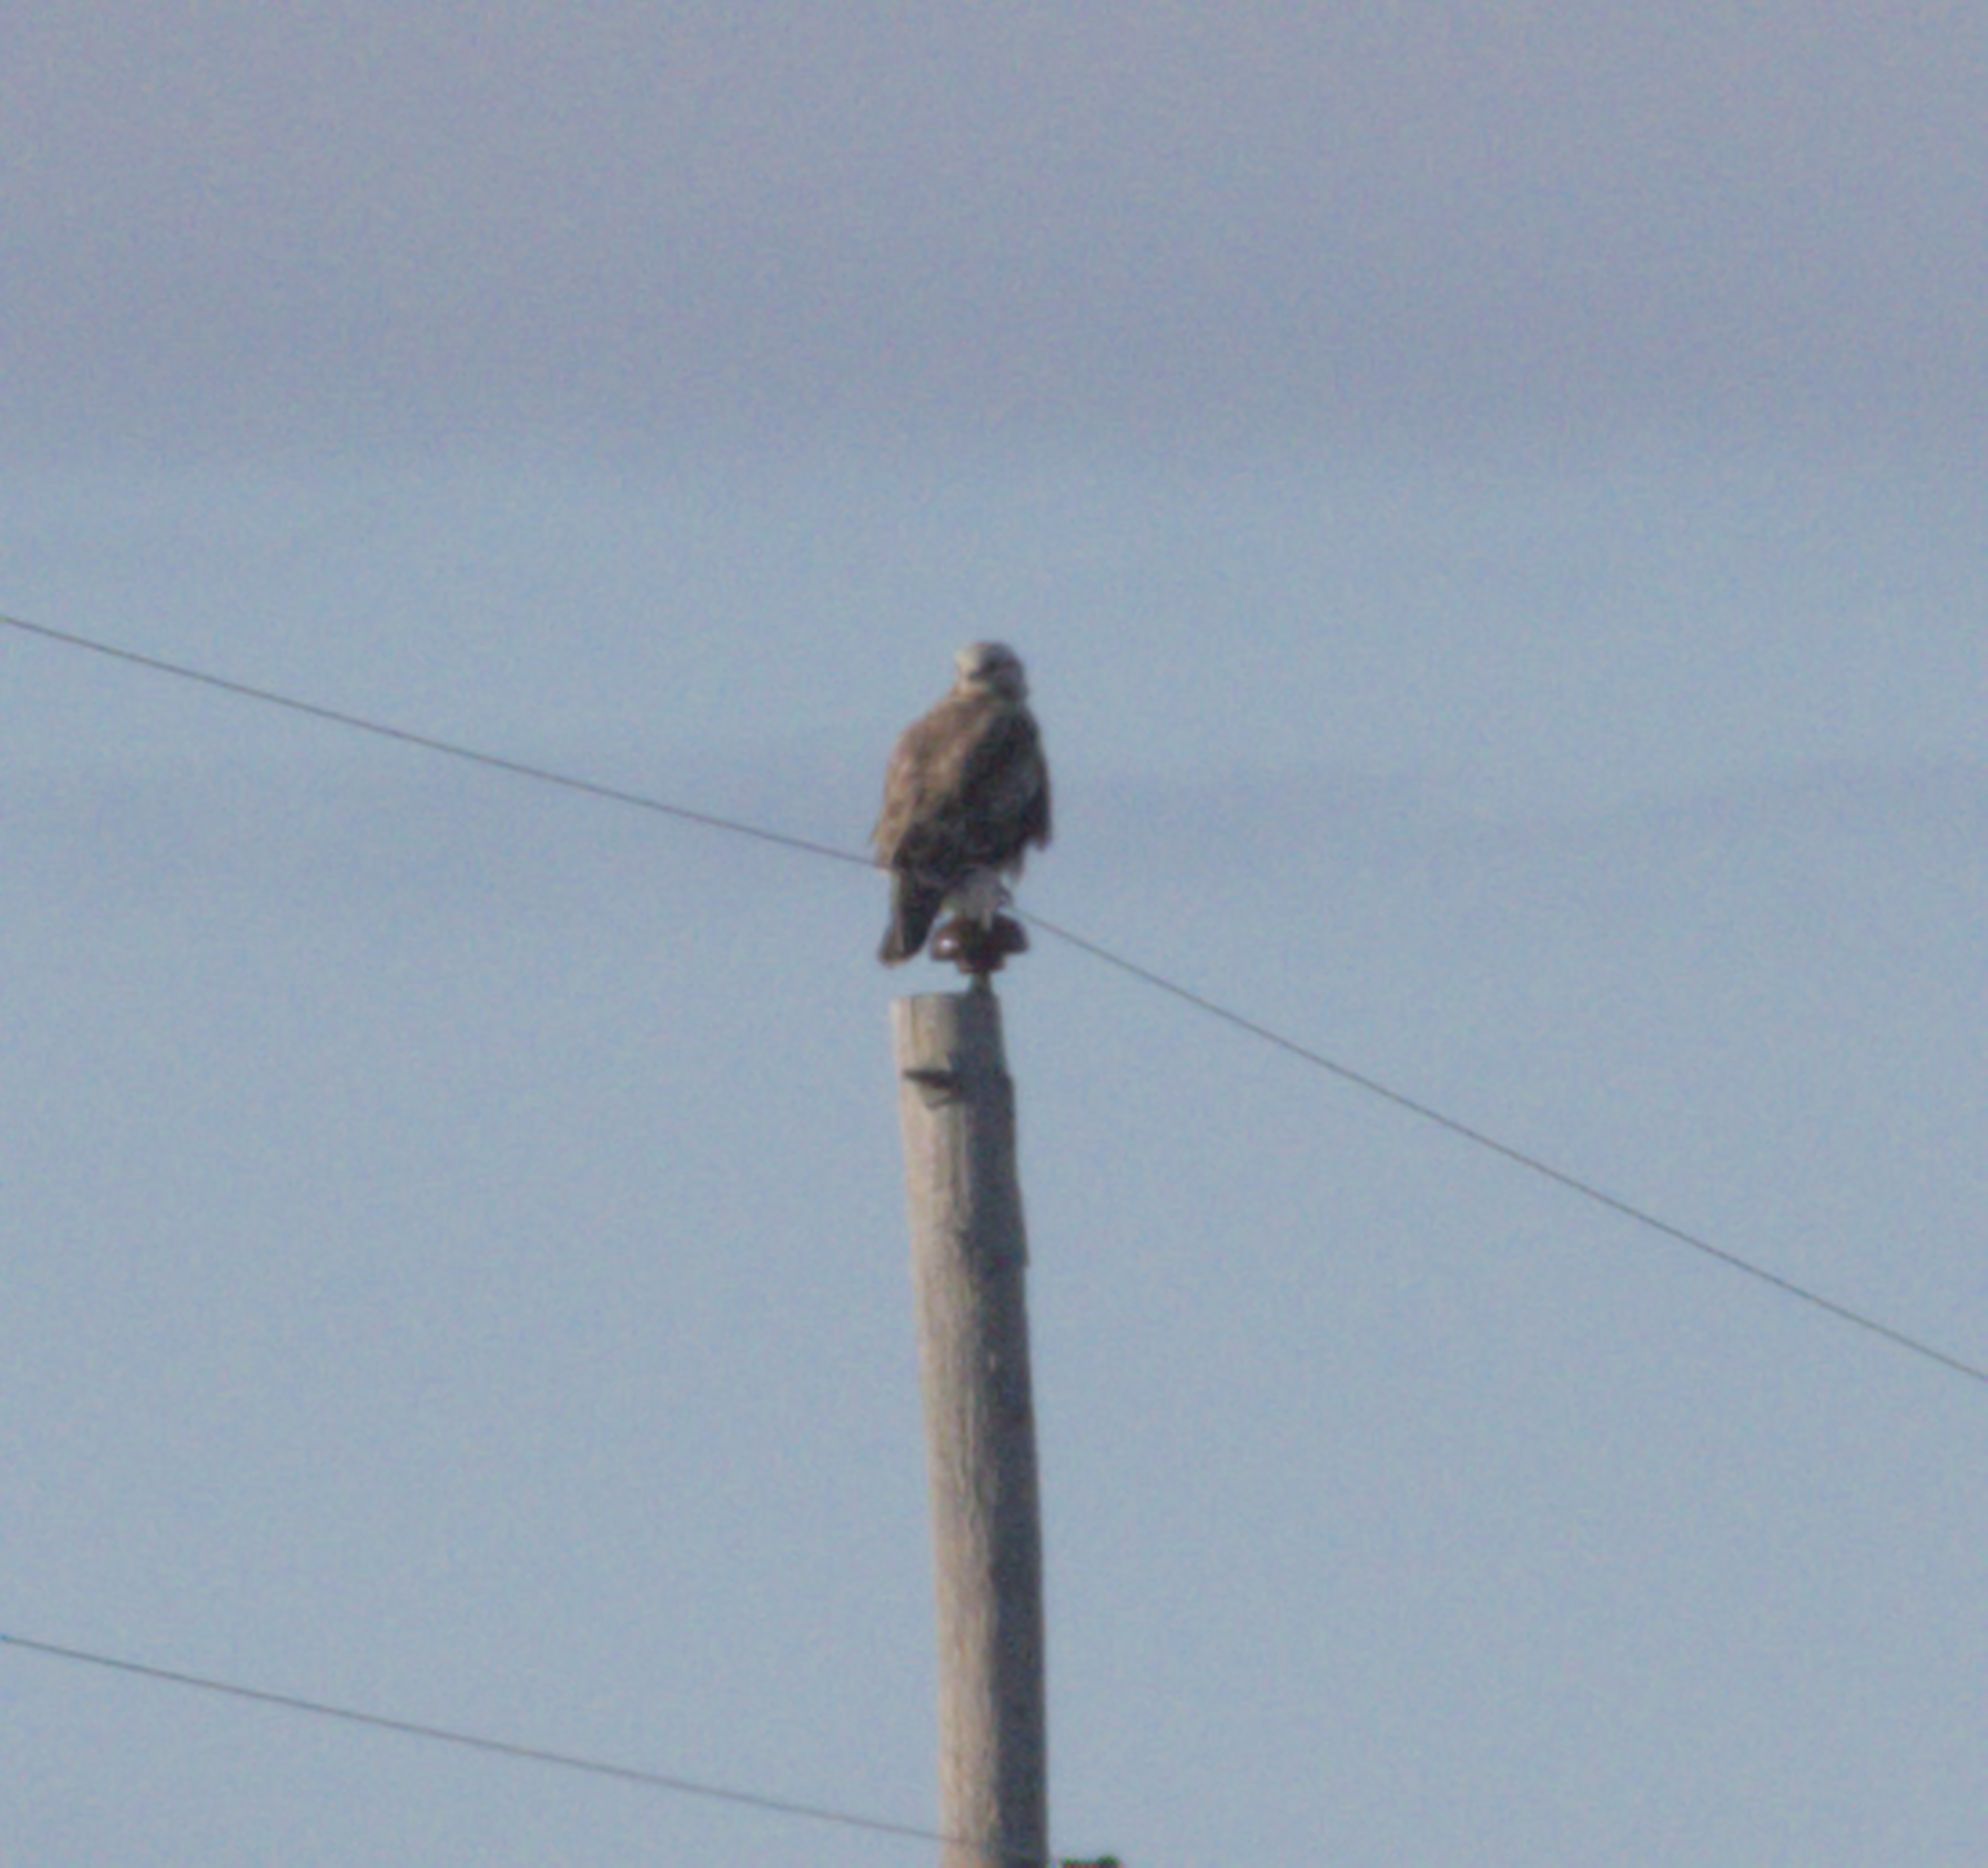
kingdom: Animalia
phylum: Chordata
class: Aves
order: Accipitriformes
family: Accipitridae
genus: Buteo
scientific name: Buteo lagopus
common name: Rough-legged buzzard
